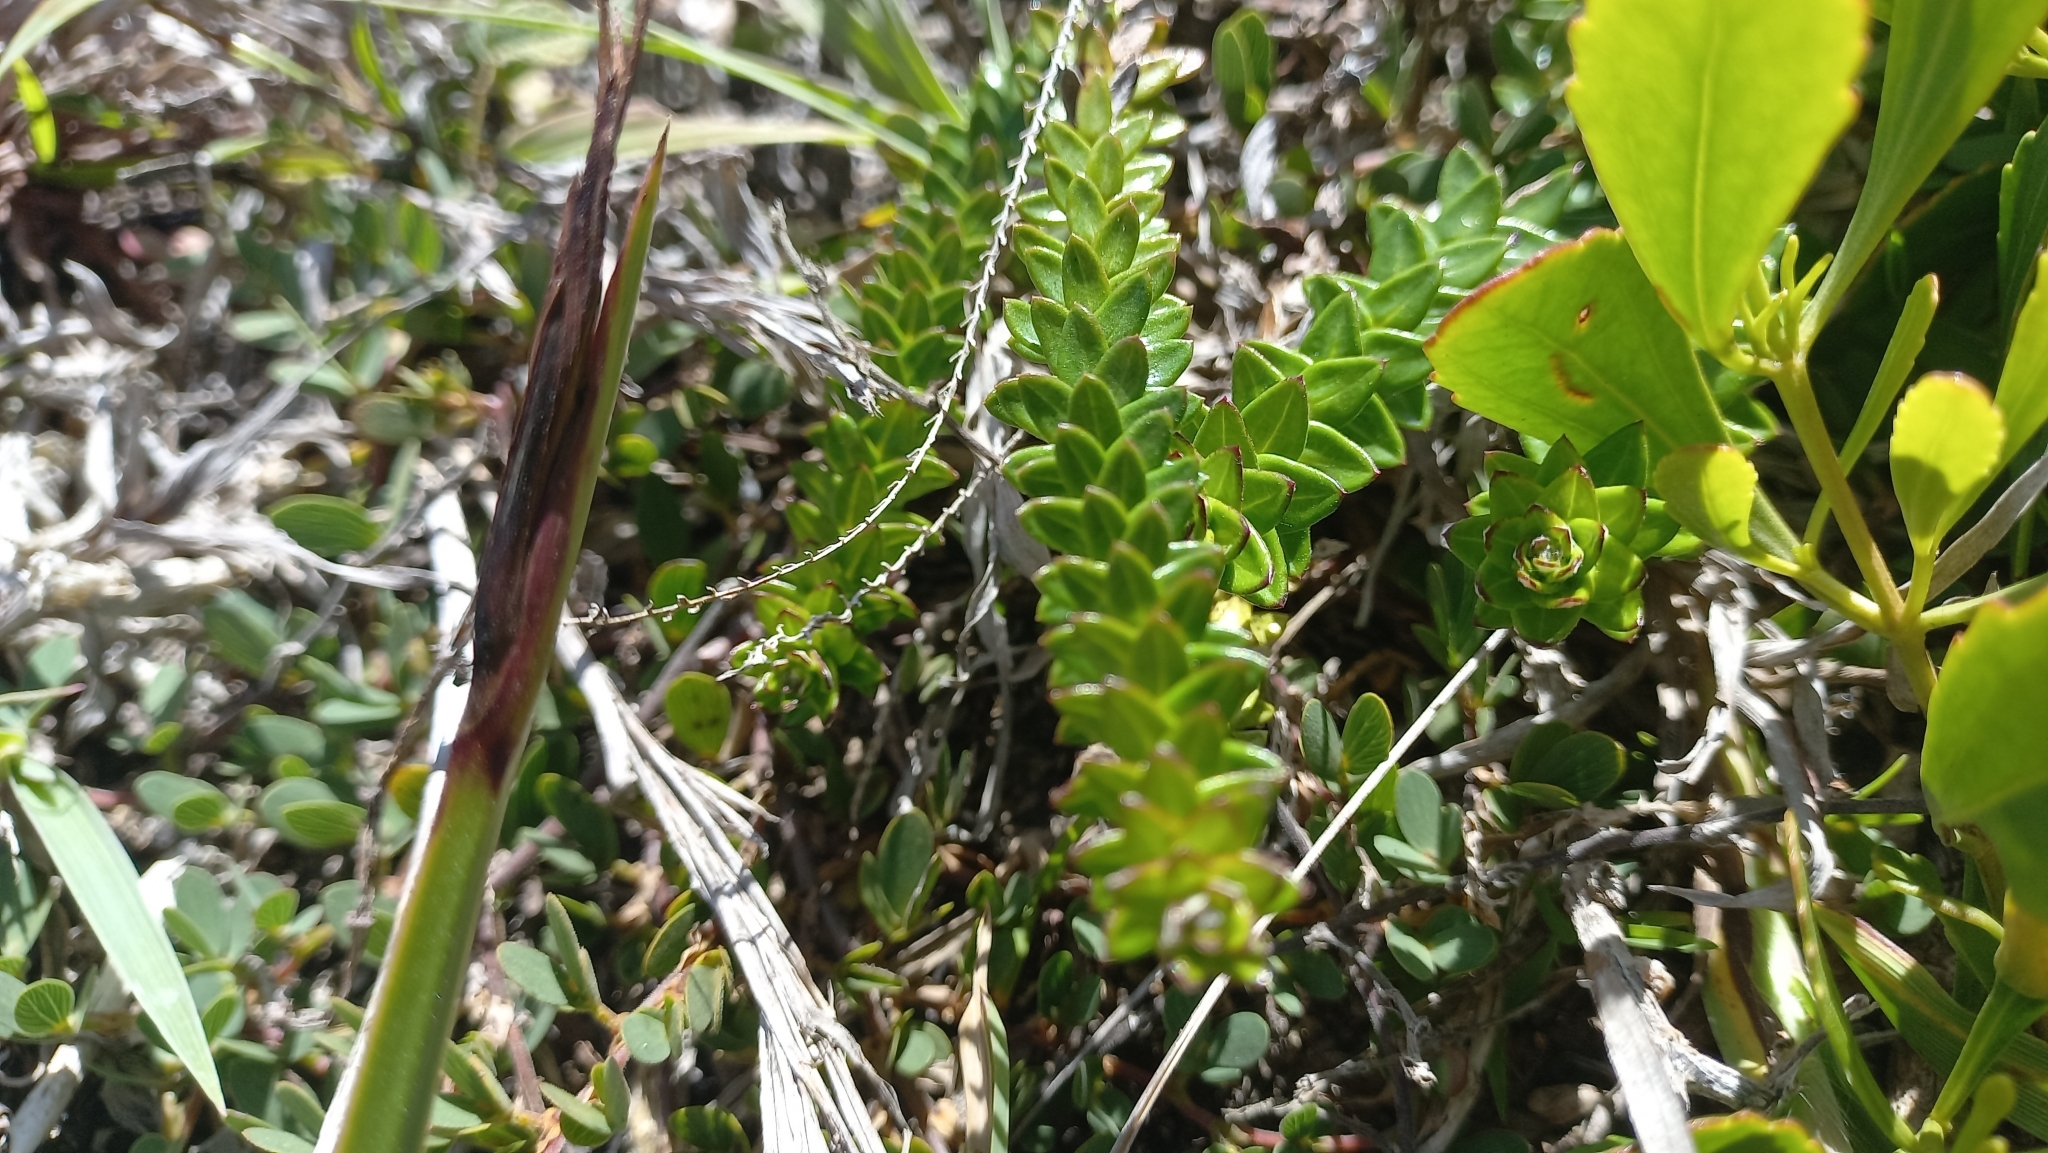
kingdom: Plantae
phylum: Tracheophyta
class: Magnoliopsida
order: Asterales
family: Asteraceae
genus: Baccharis
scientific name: Baccharis gnaphalioides
